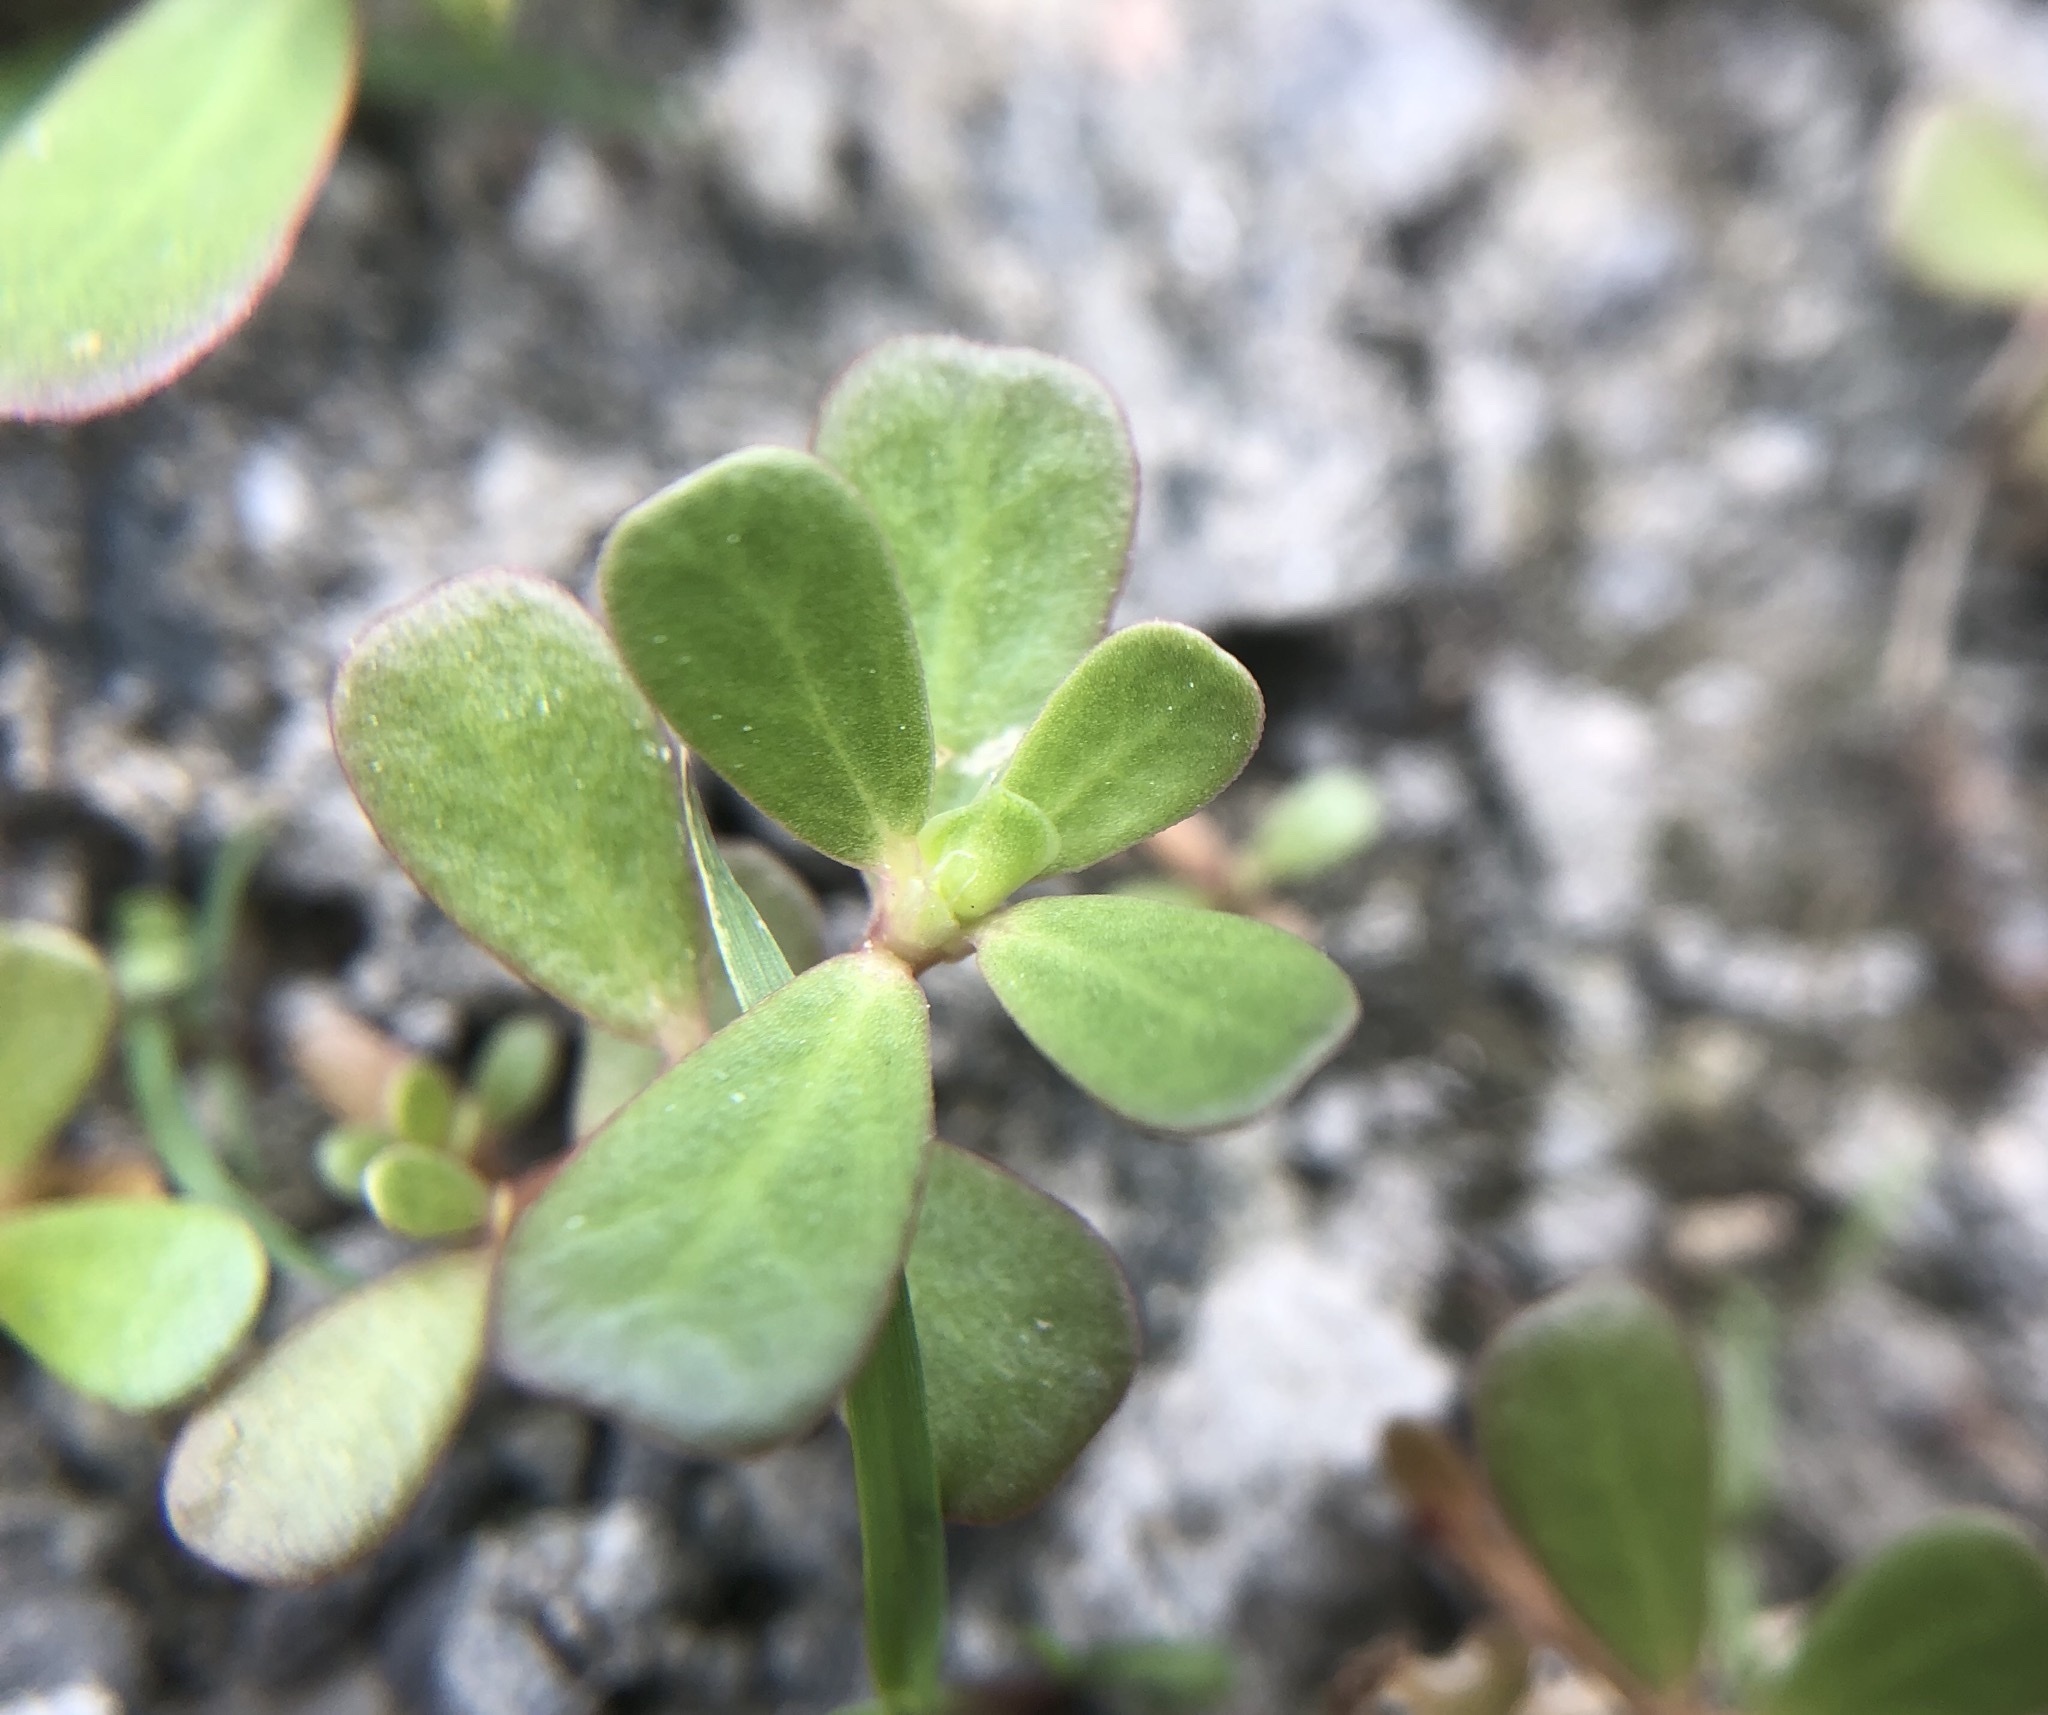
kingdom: Plantae
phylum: Tracheophyta
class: Magnoliopsida
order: Caryophyllales
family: Portulacaceae
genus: Portulaca
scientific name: Portulaca oleracea
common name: Common purslane
